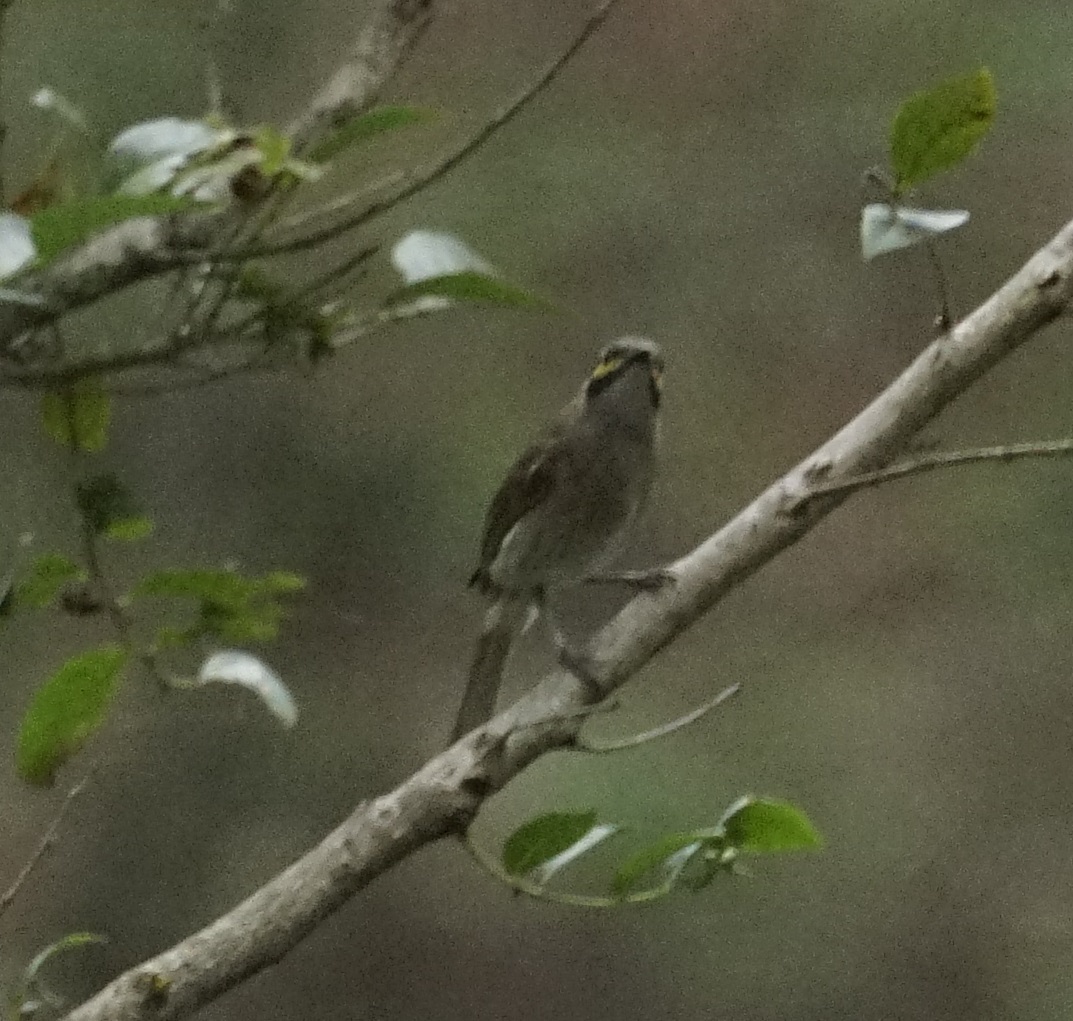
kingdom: Animalia
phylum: Chordata
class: Aves
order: Passeriformes
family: Meliphagidae
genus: Caligavis
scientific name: Caligavis chrysops
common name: Yellow-faced honeyeater
